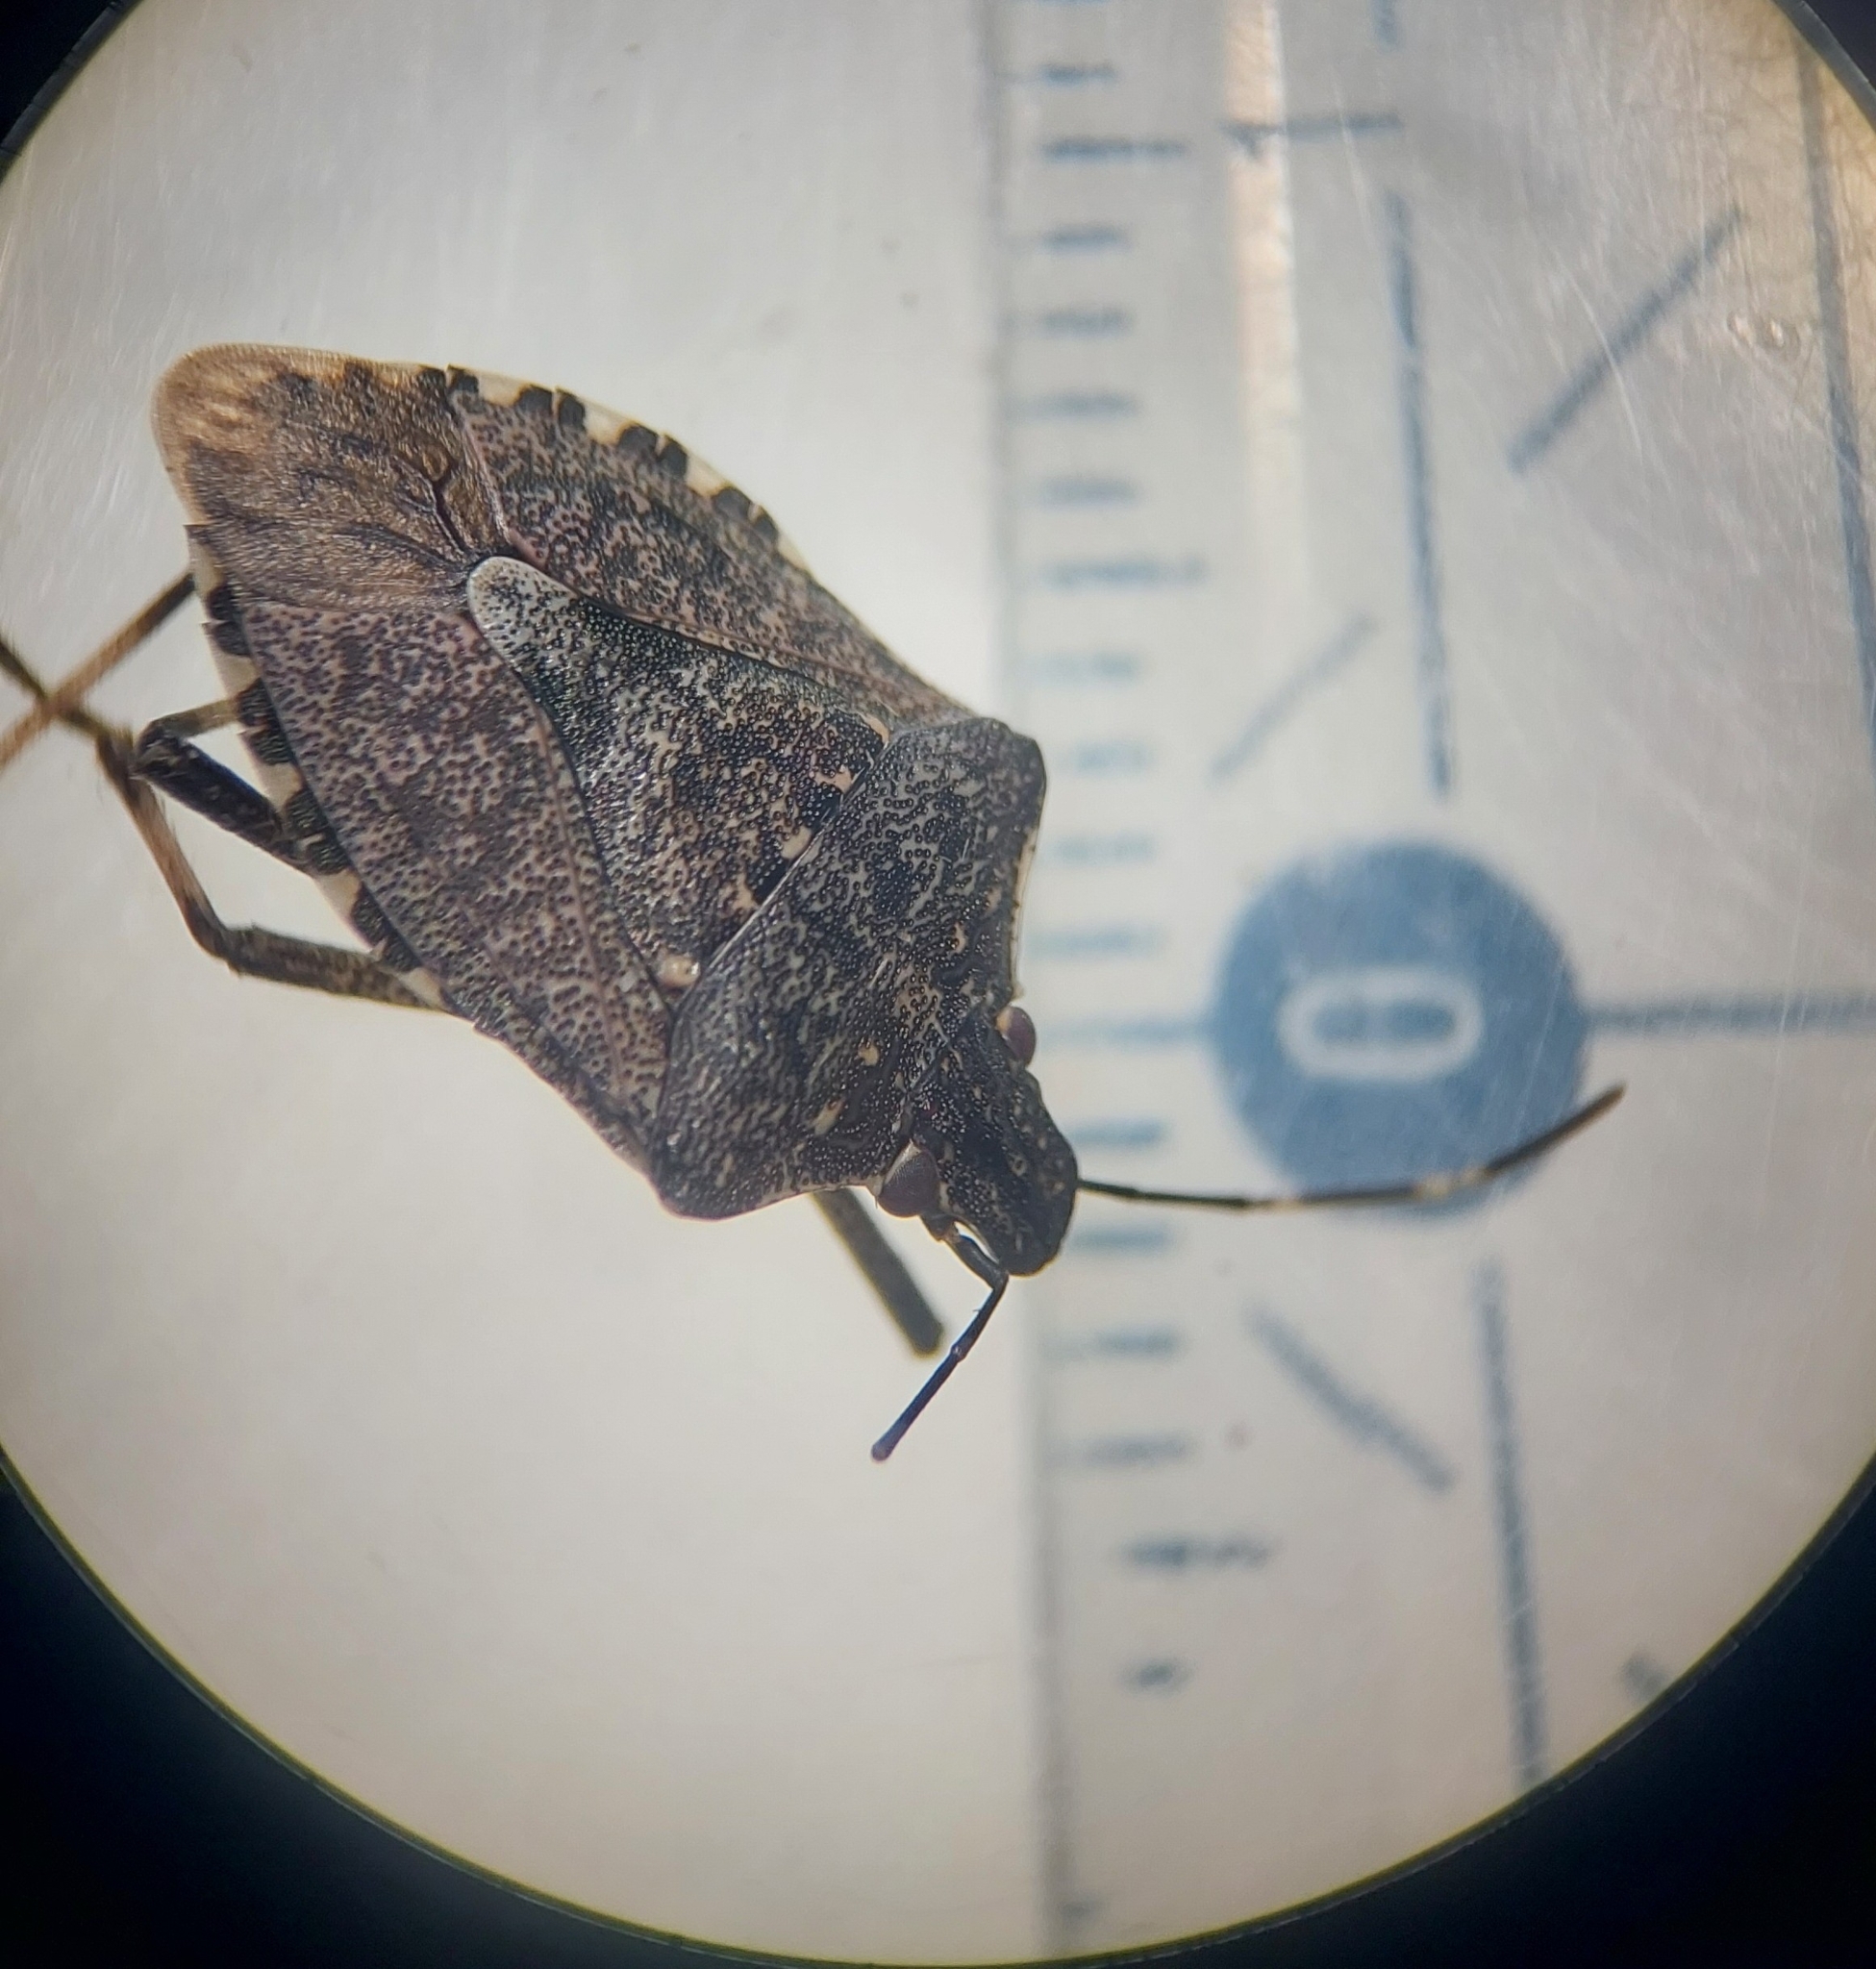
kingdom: Animalia
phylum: Arthropoda
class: Insecta
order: Hemiptera
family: Pentatomidae
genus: Halyomorpha
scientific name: Halyomorpha halys
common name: Brown marmorated stink bug
